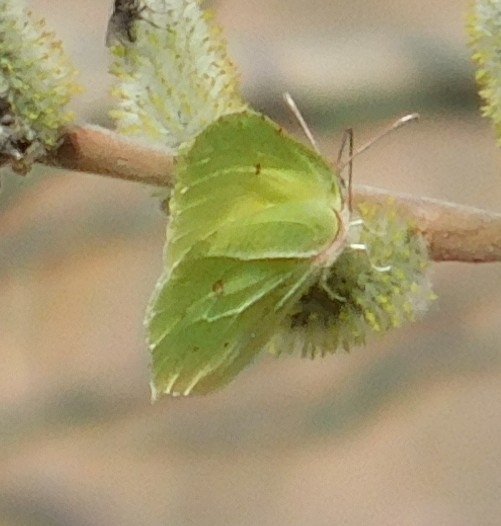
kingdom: Animalia
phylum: Arthropoda
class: Insecta
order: Lepidoptera
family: Pieridae
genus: Gonepteryx
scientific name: Gonepteryx rhamni
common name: Brimstone
